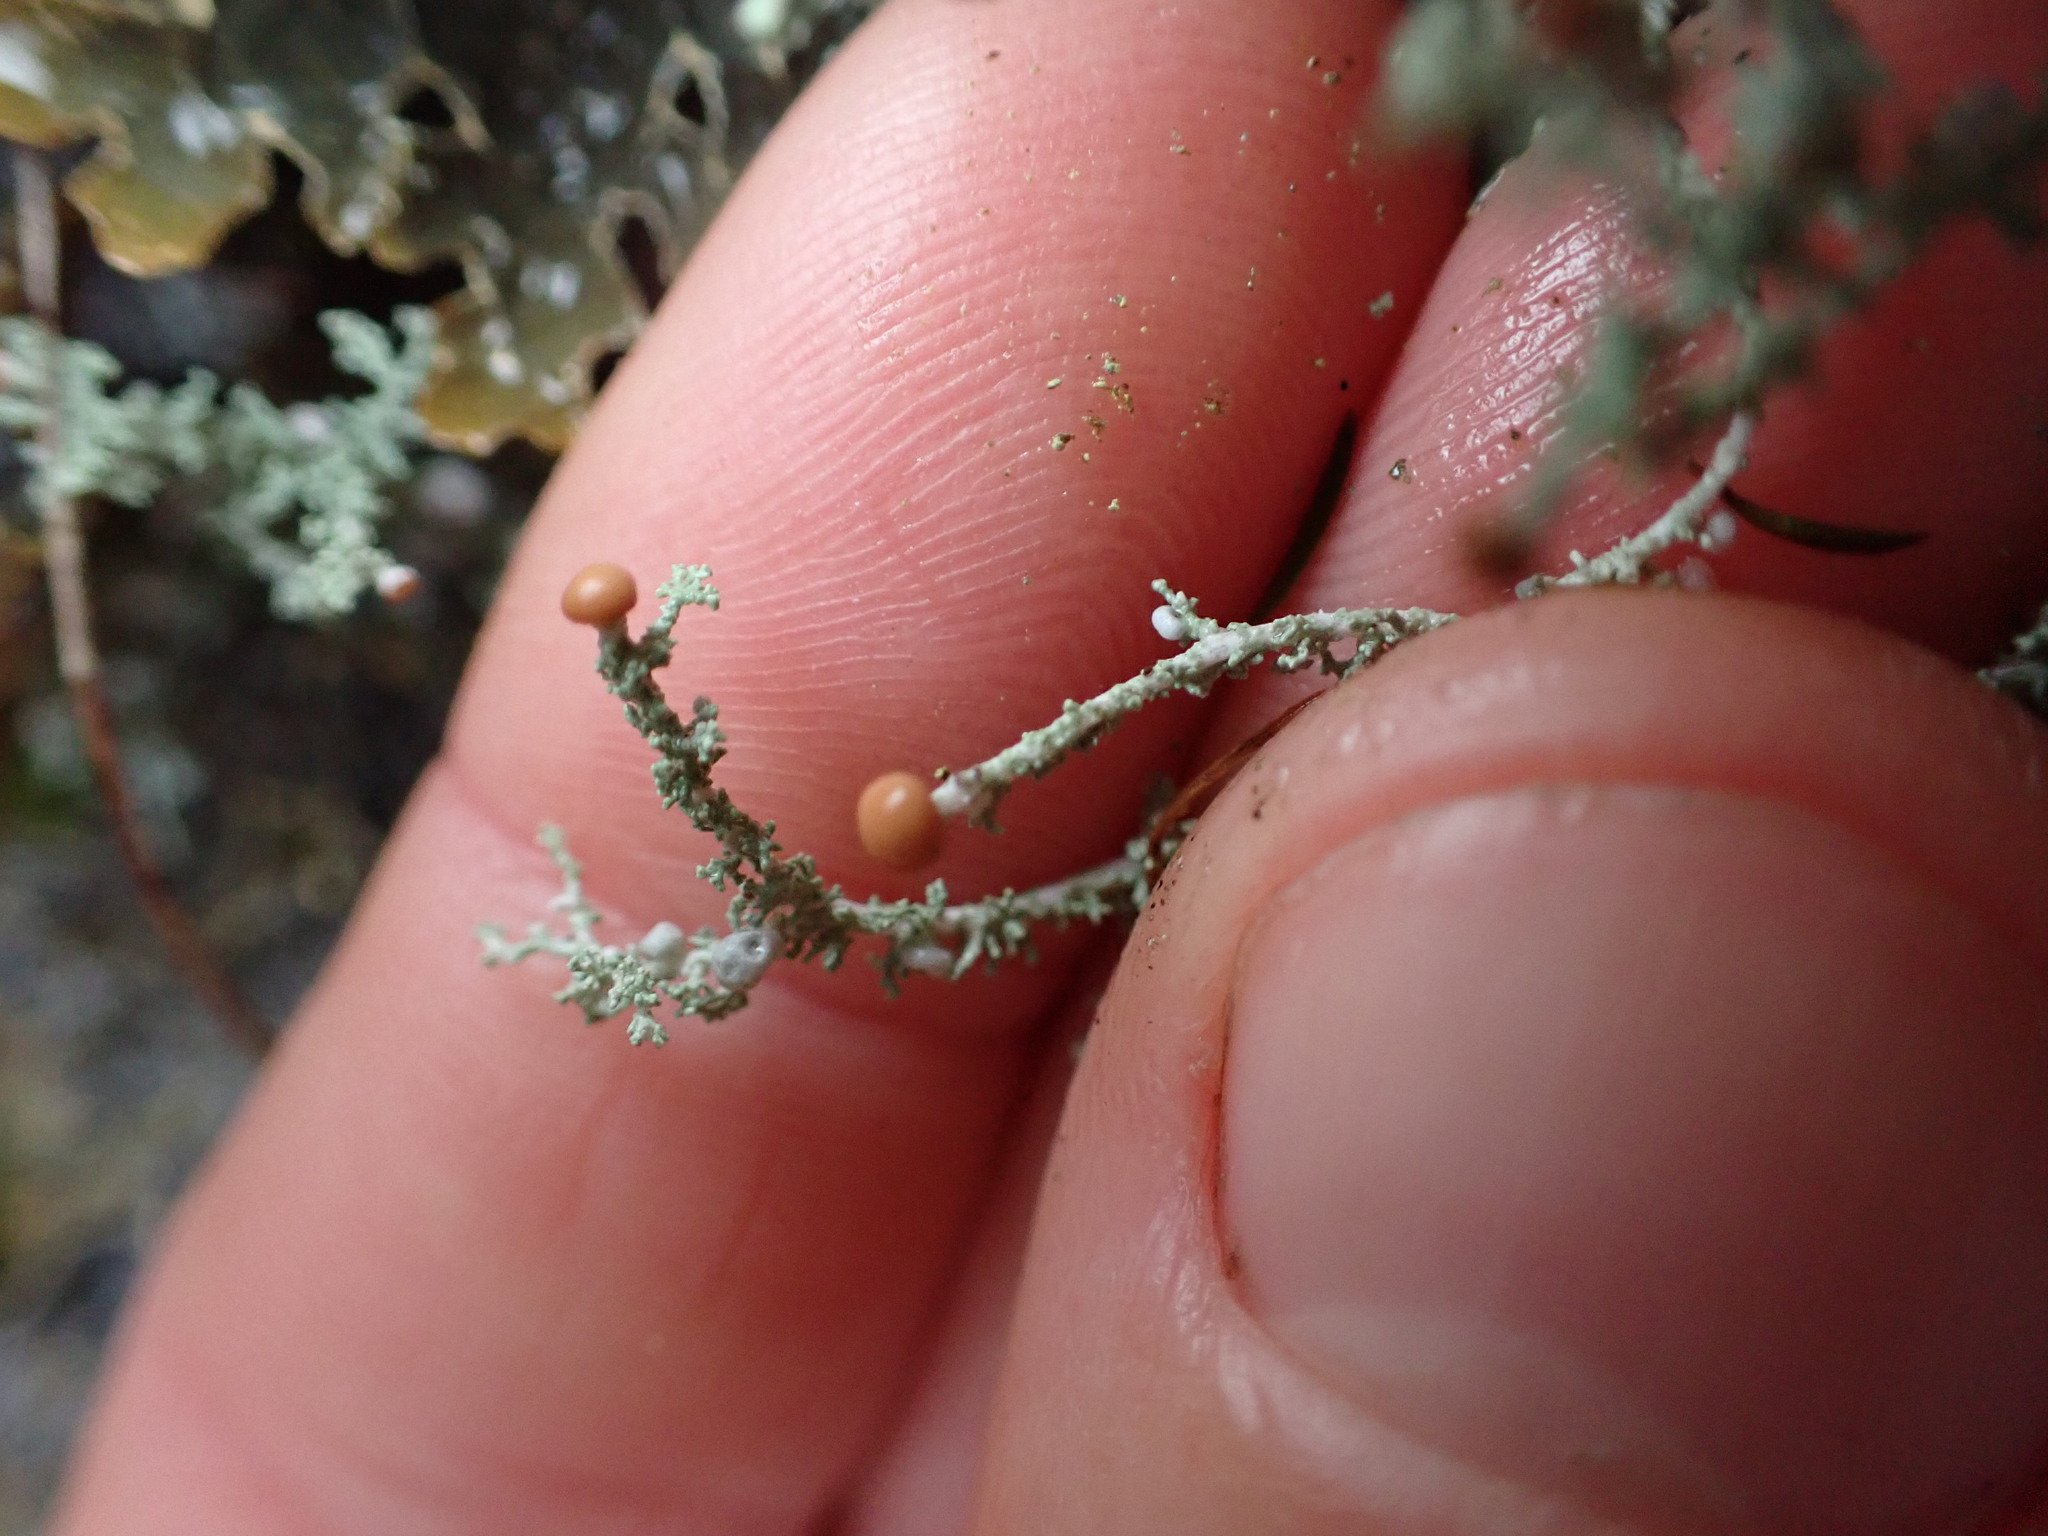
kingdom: Fungi
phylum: Ascomycota
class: Lecanoromycetes
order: Lecanorales
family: Stereocaulaceae
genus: Stereocaulon
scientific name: Stereocaulon ramulosum
